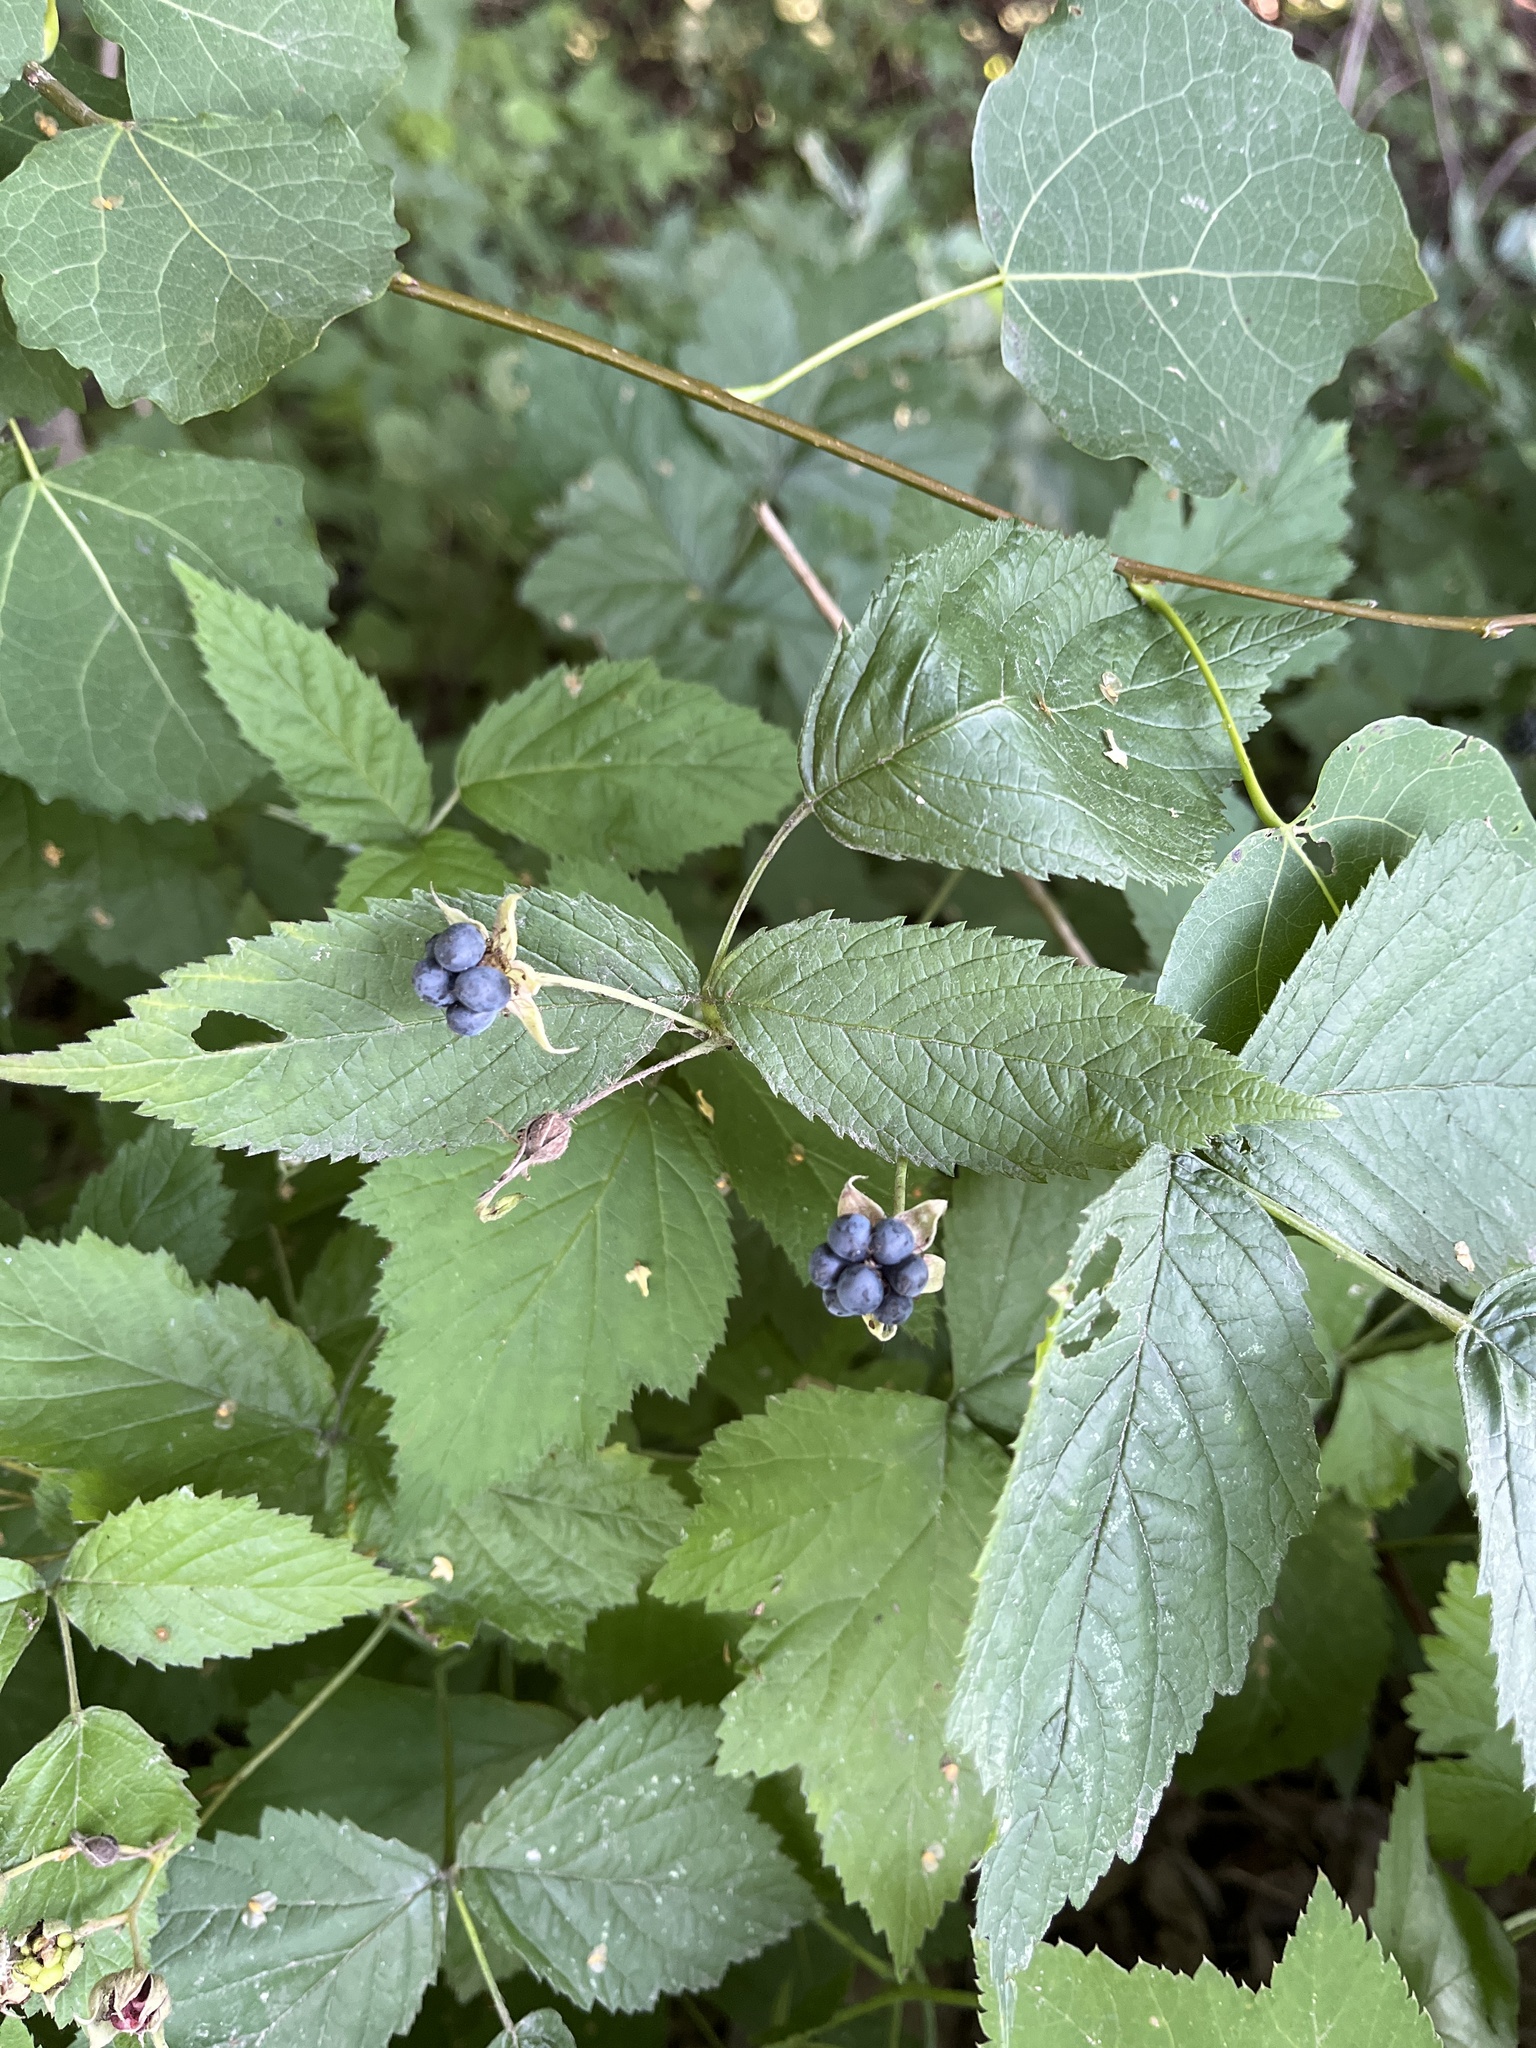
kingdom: Plantae
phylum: Tracheophyta
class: Magnoliopsida
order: Rosales
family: Rosaceae
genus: Rubus
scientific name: Rubus caesius
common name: Dewberry
